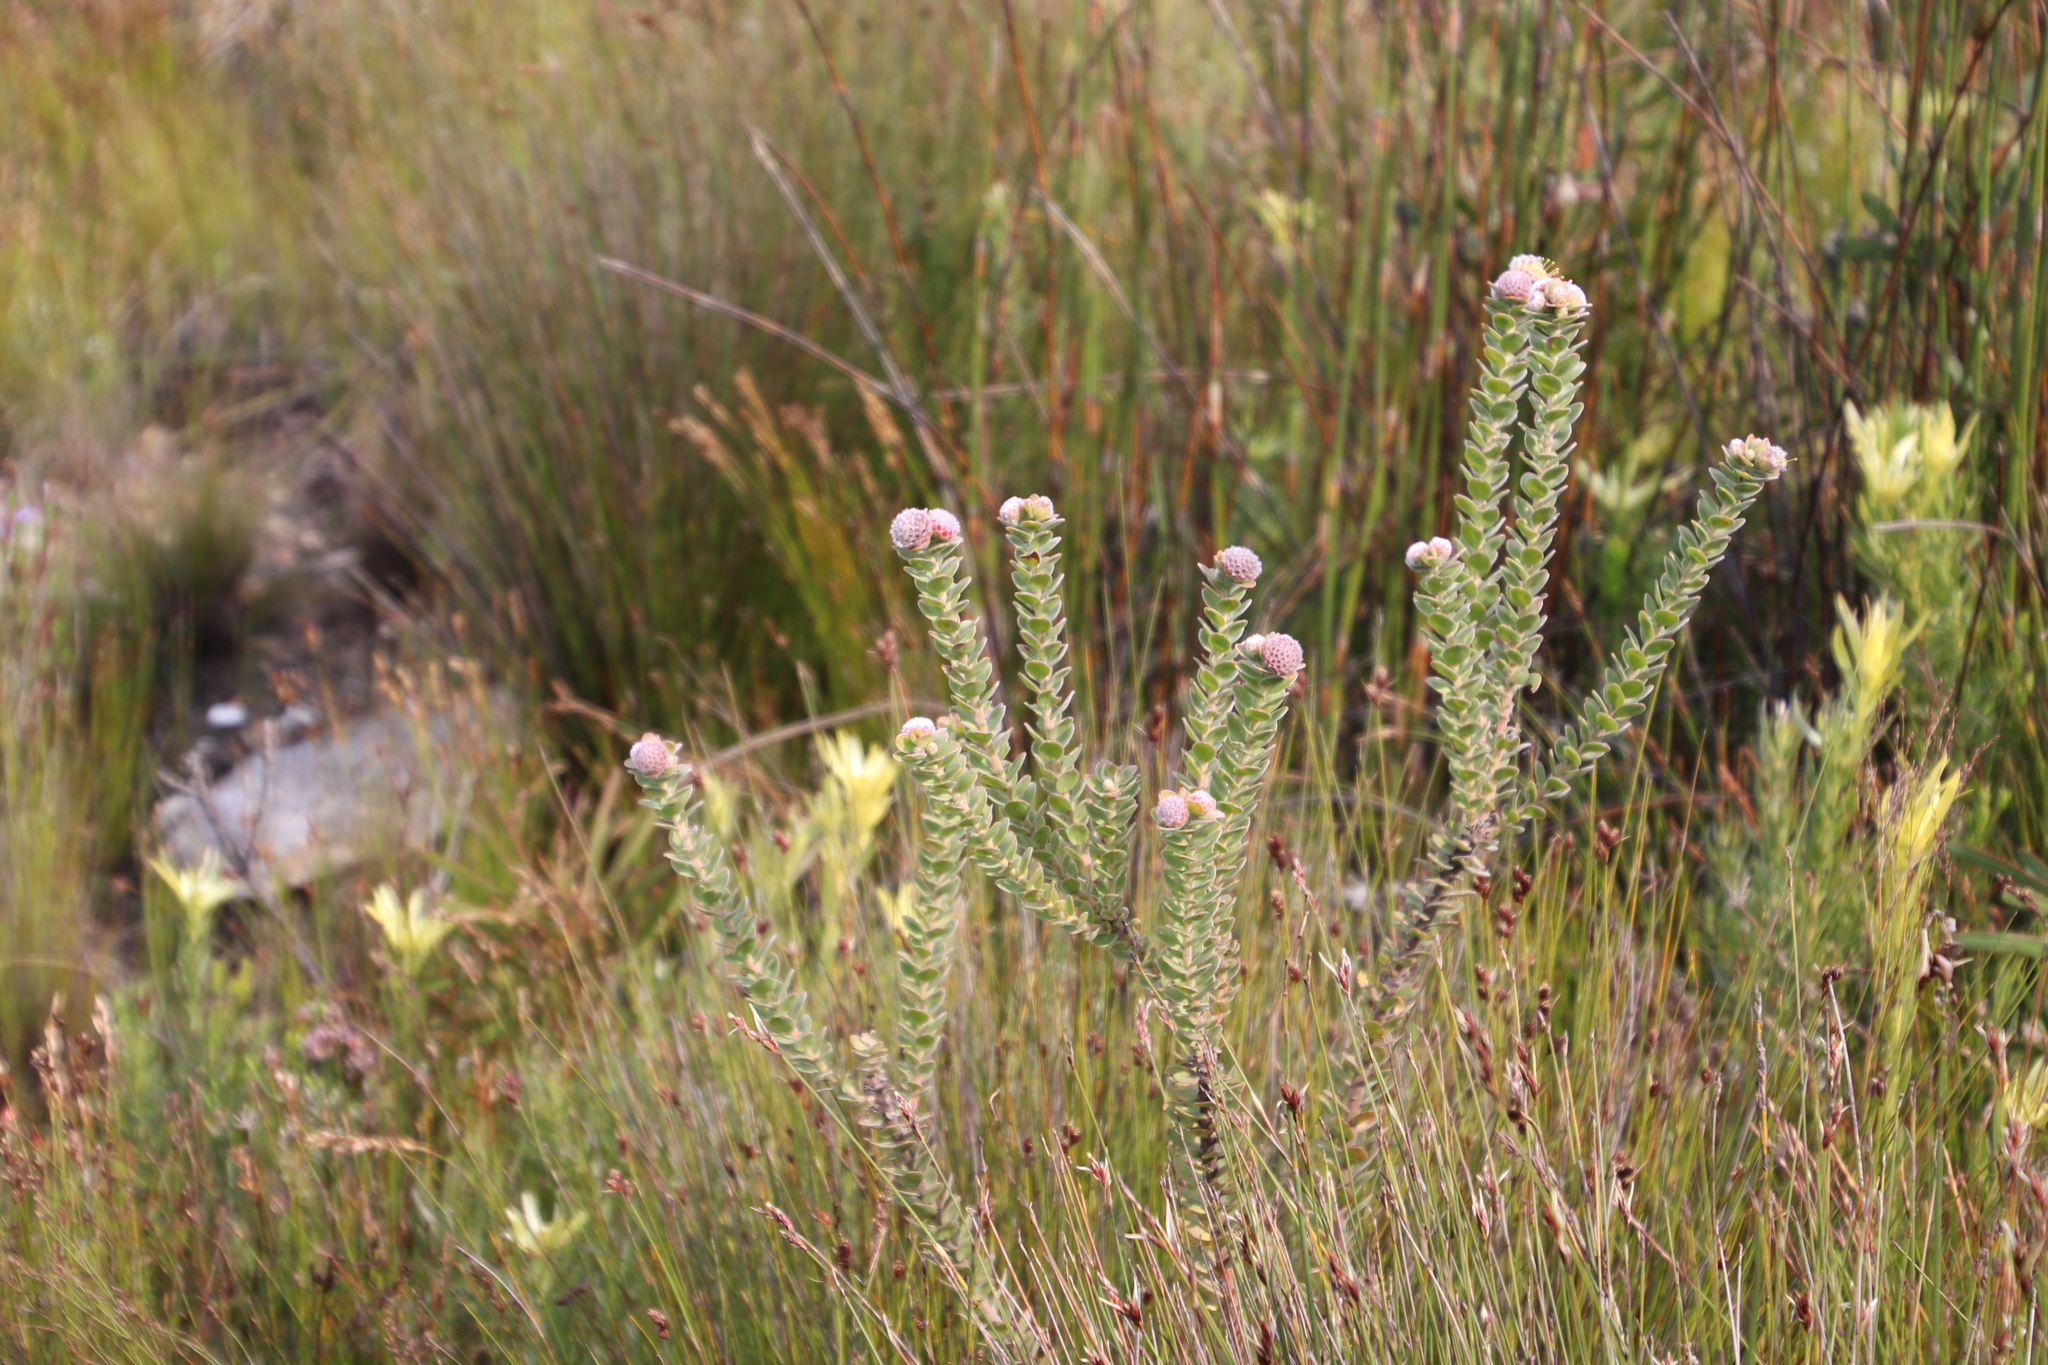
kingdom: Plantae
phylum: Tracheophyta
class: Magnoliopsida
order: Proteales
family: Proteaceae
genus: Leucospermum
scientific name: Leucospermum truncatulum
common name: Oval-leaf pincushion
